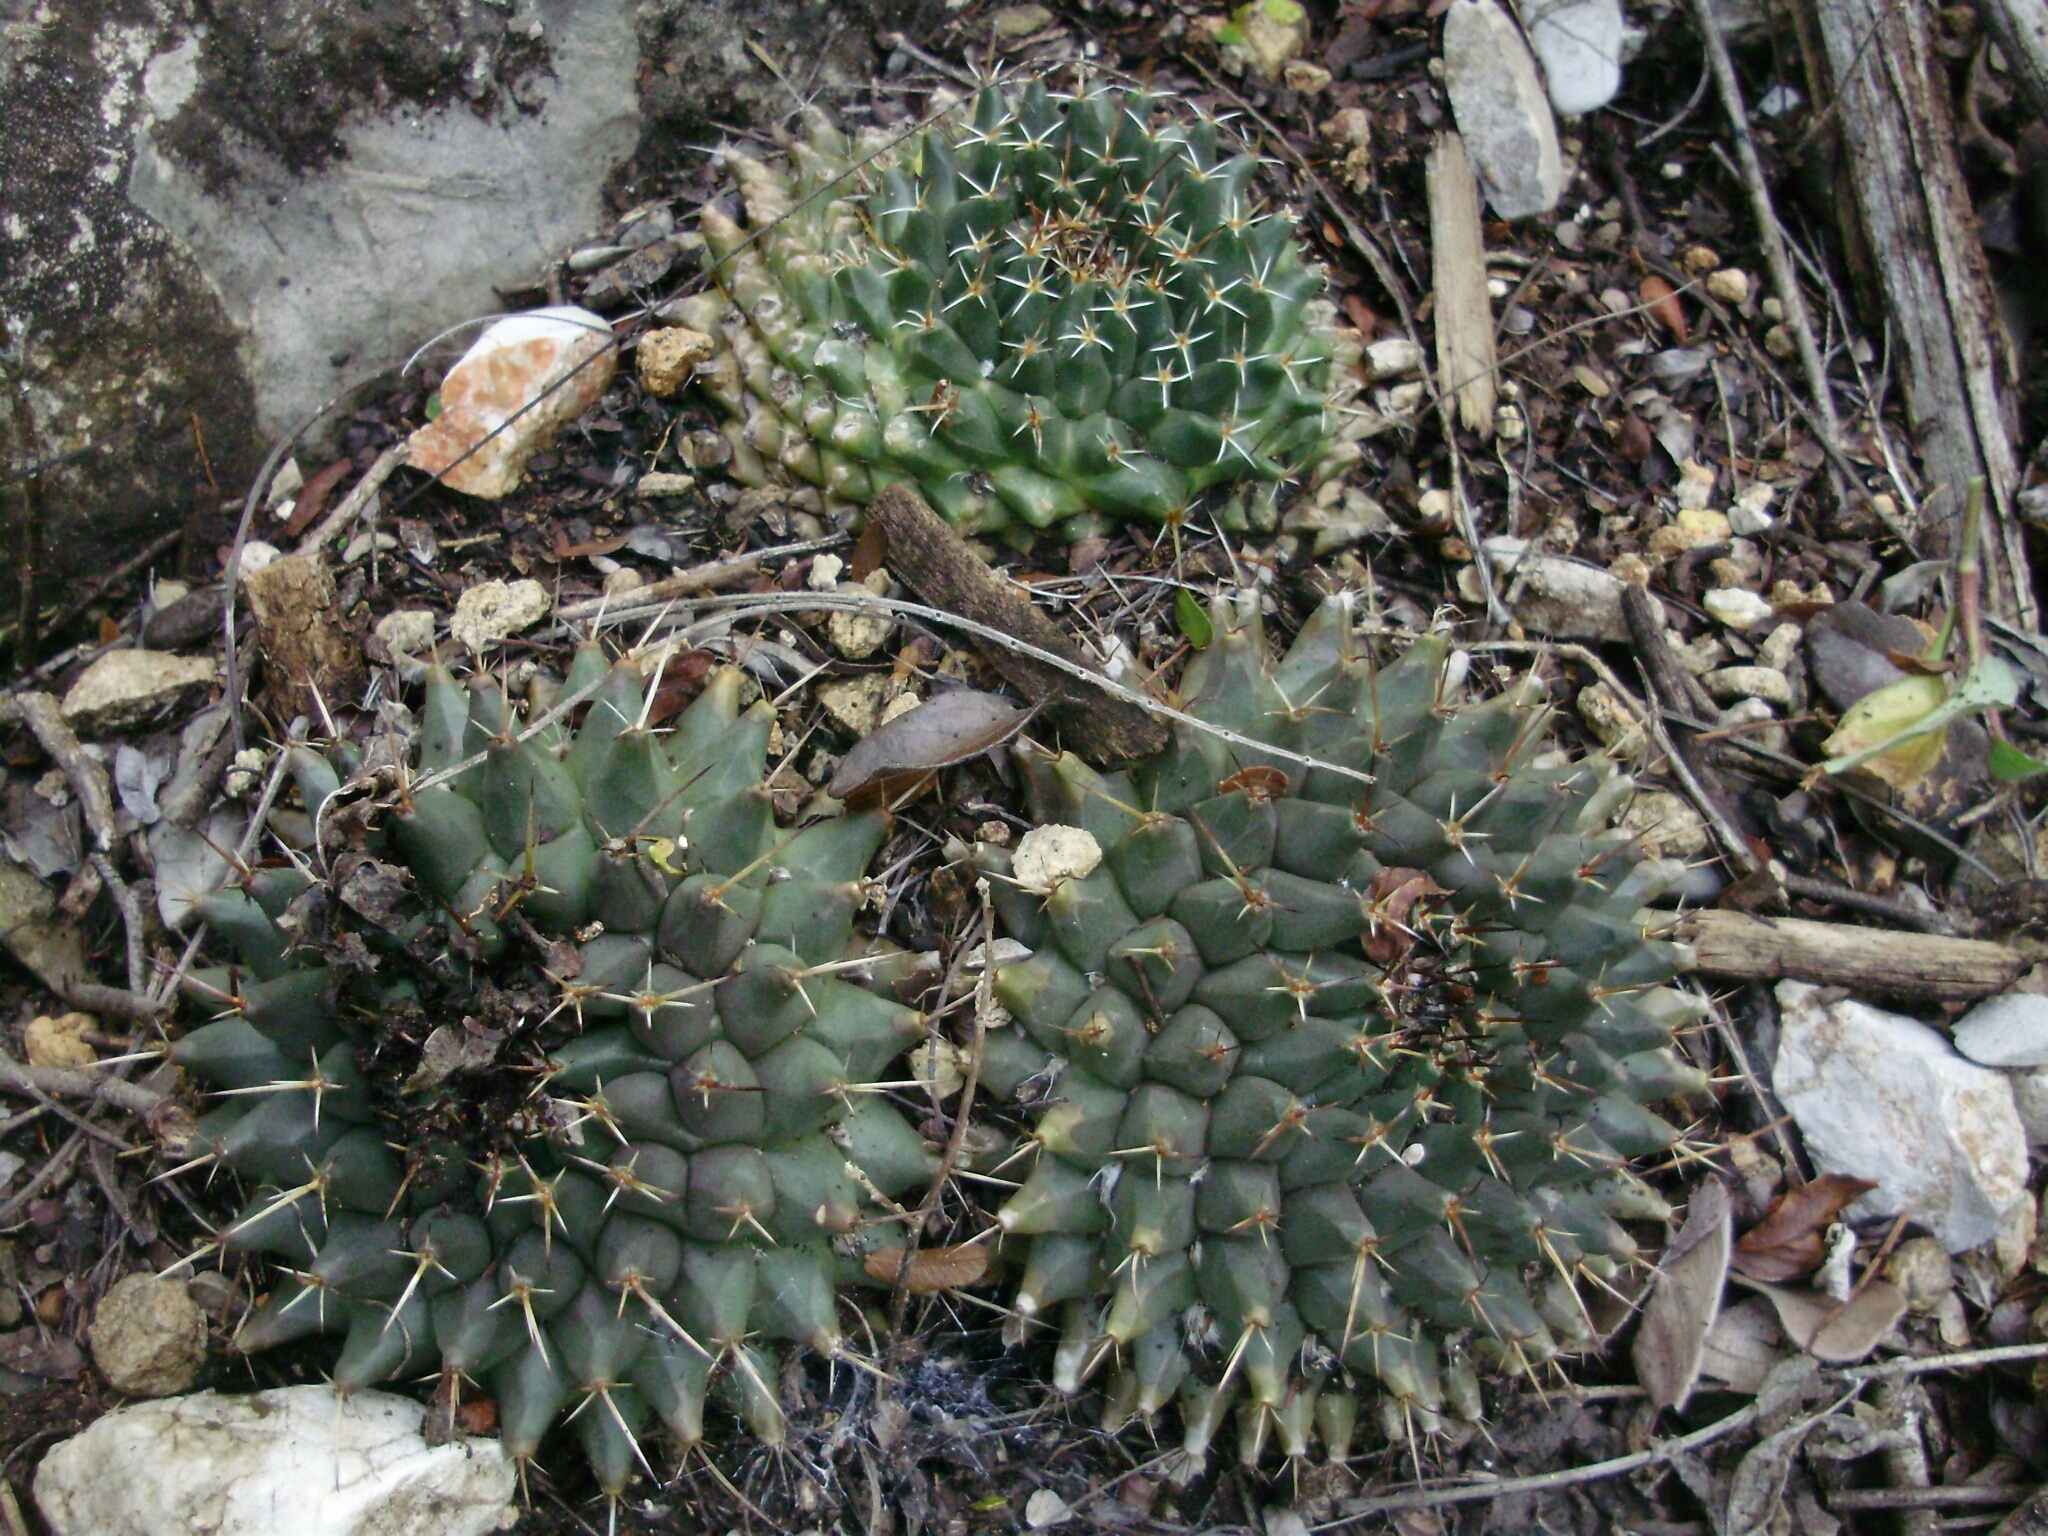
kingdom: Plantae
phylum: Tracheophyta
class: Magnoliopsida
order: Caryophyllales
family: Cactaceae
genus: Mammillaria
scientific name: Mammillaria magnimamma
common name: Mexican pincushion
